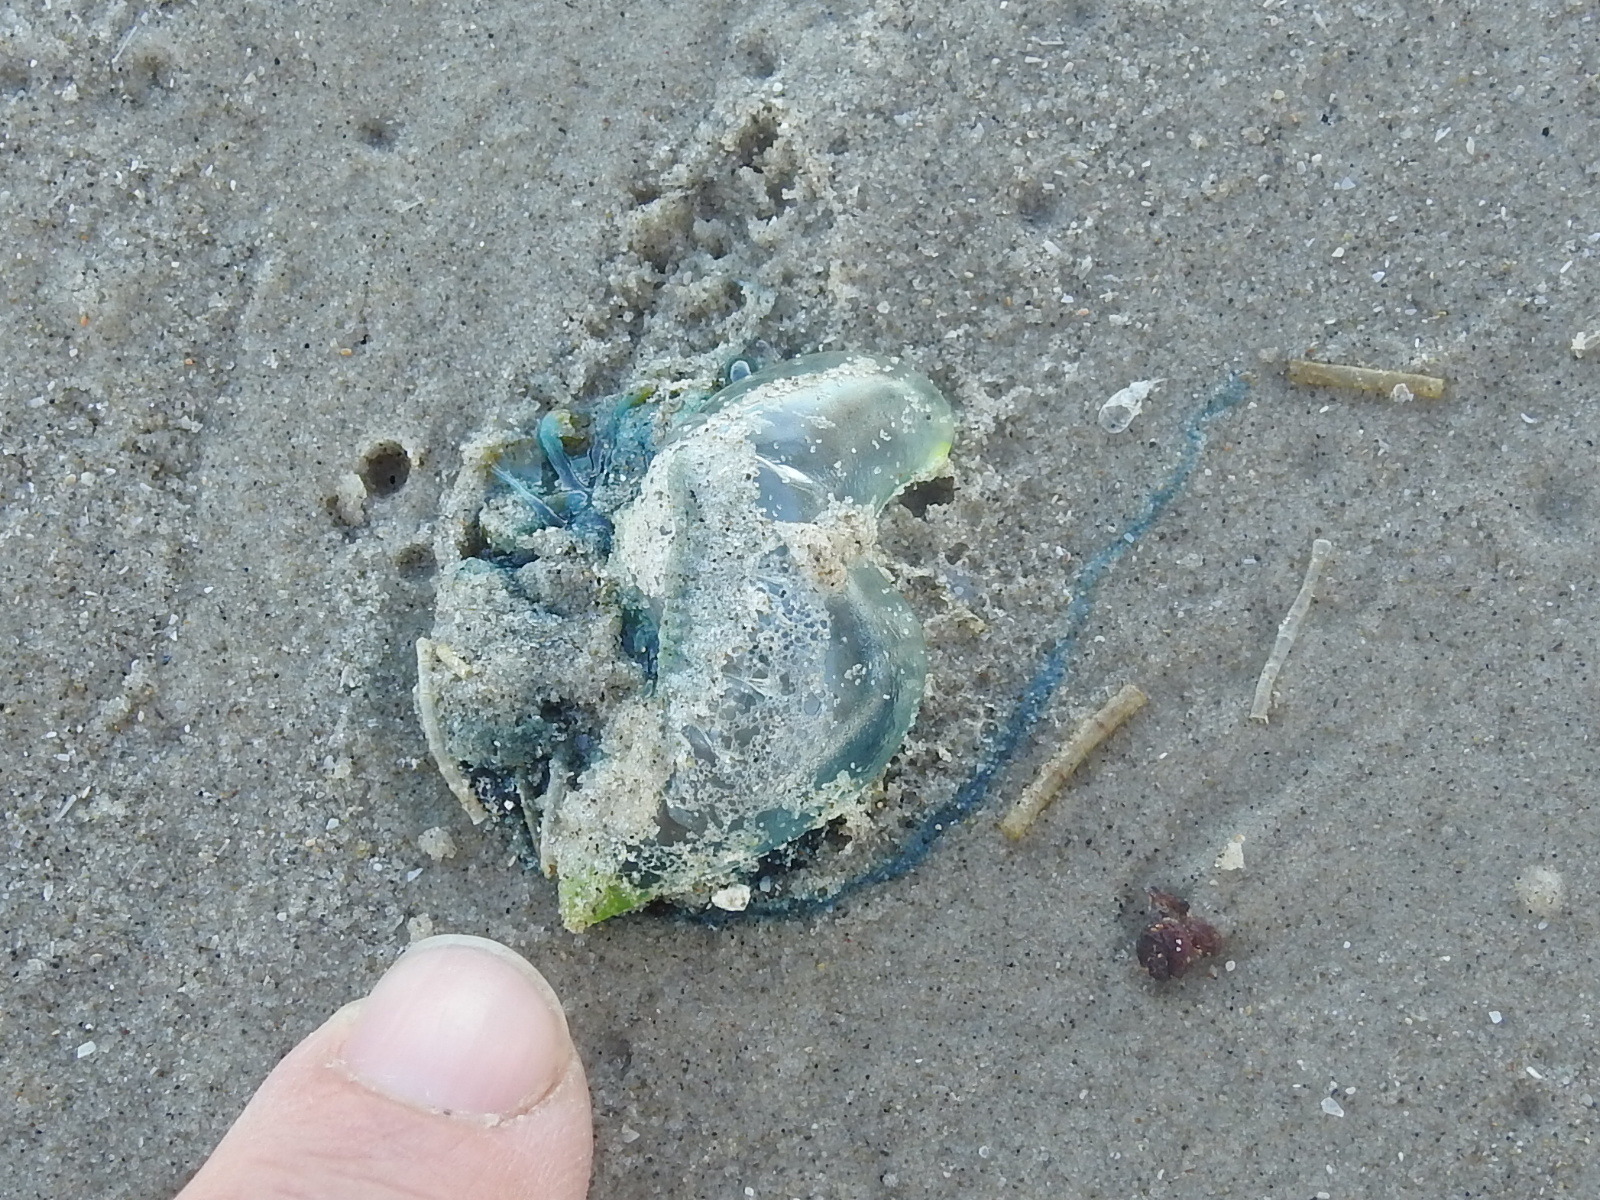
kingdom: Animalia
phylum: Cnidaria
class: Hydrozoa
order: Siphonophorae
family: Physaliidae
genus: Physalia
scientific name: Physalia physalis
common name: Portuguese man-of-war
